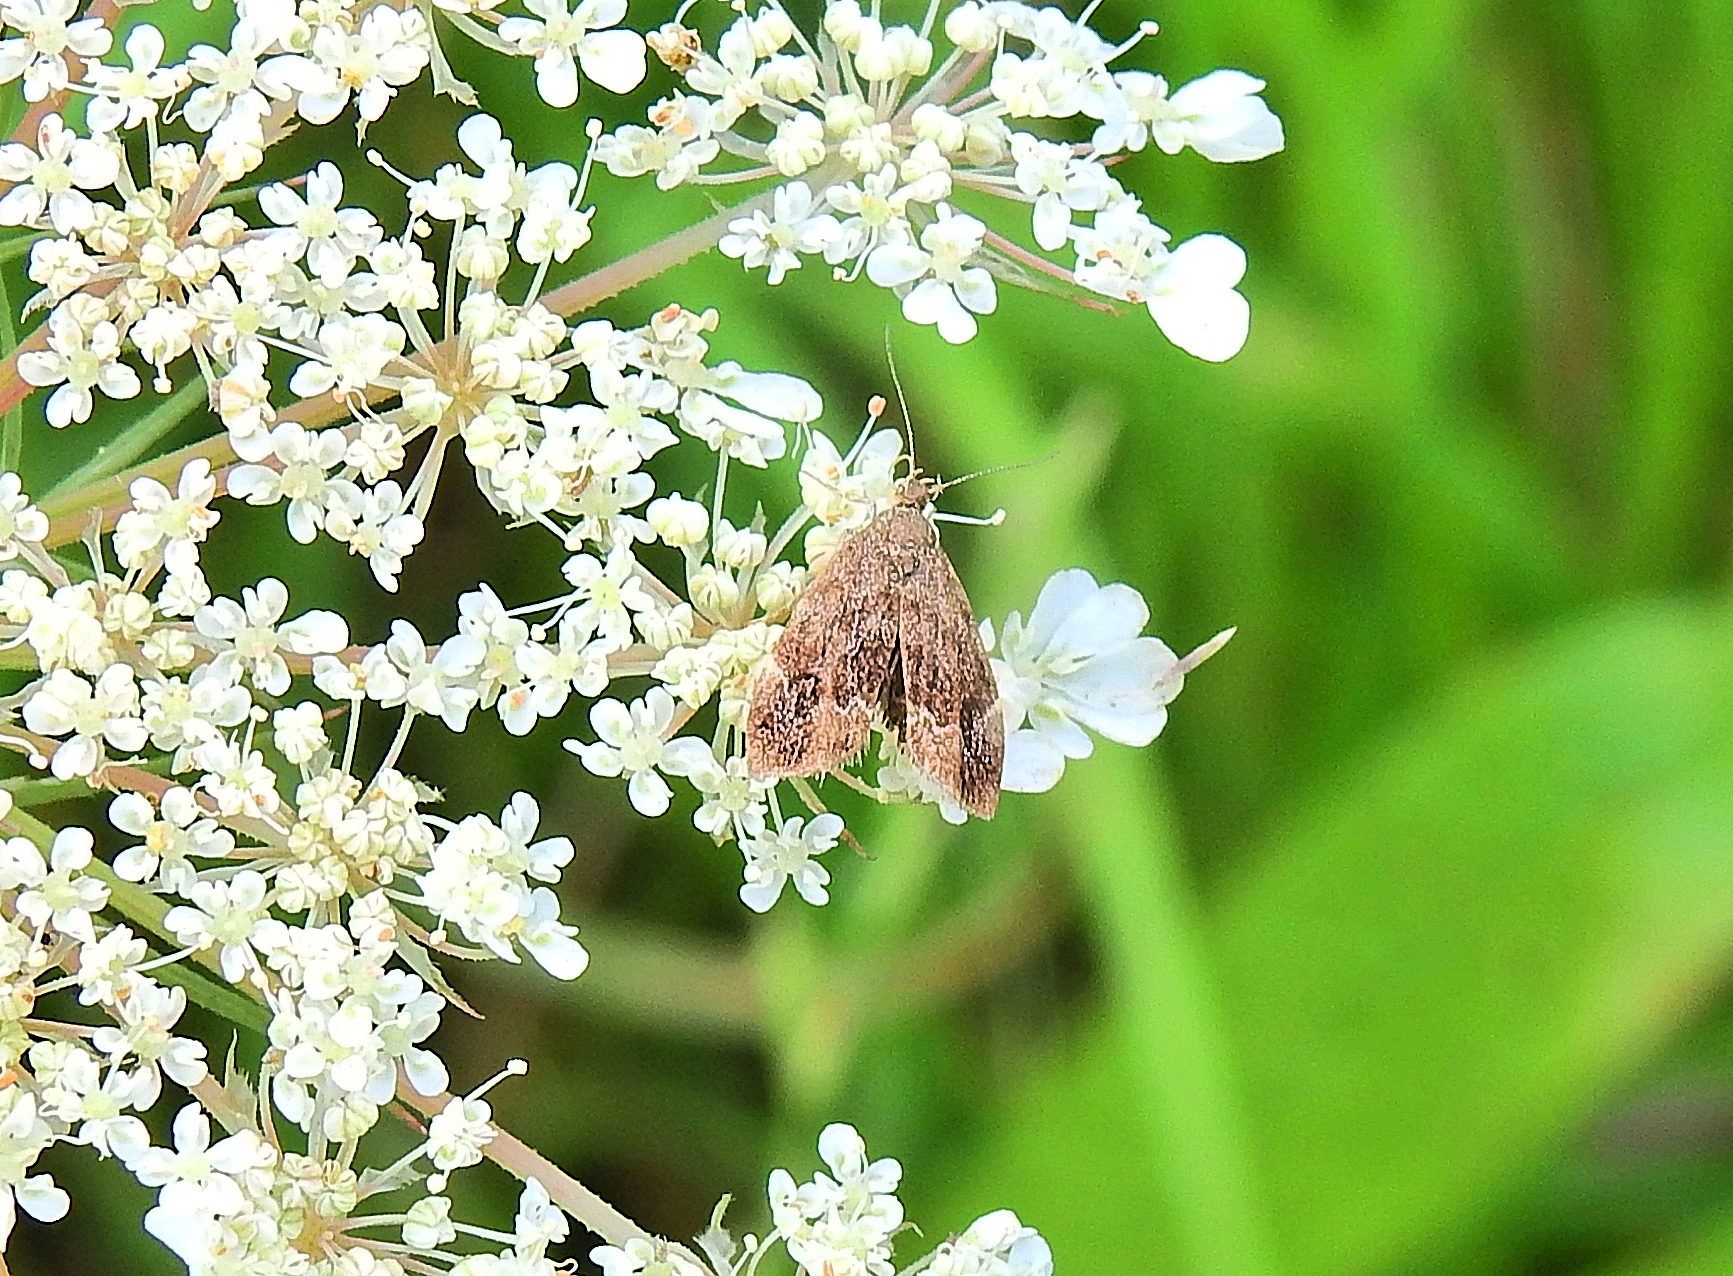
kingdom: Animalia
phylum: Arthropoda
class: Insecta
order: Lepidoptera
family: Choreutidae
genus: Anthophila
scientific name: Anthophila fabriciana
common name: Nettle-tap
